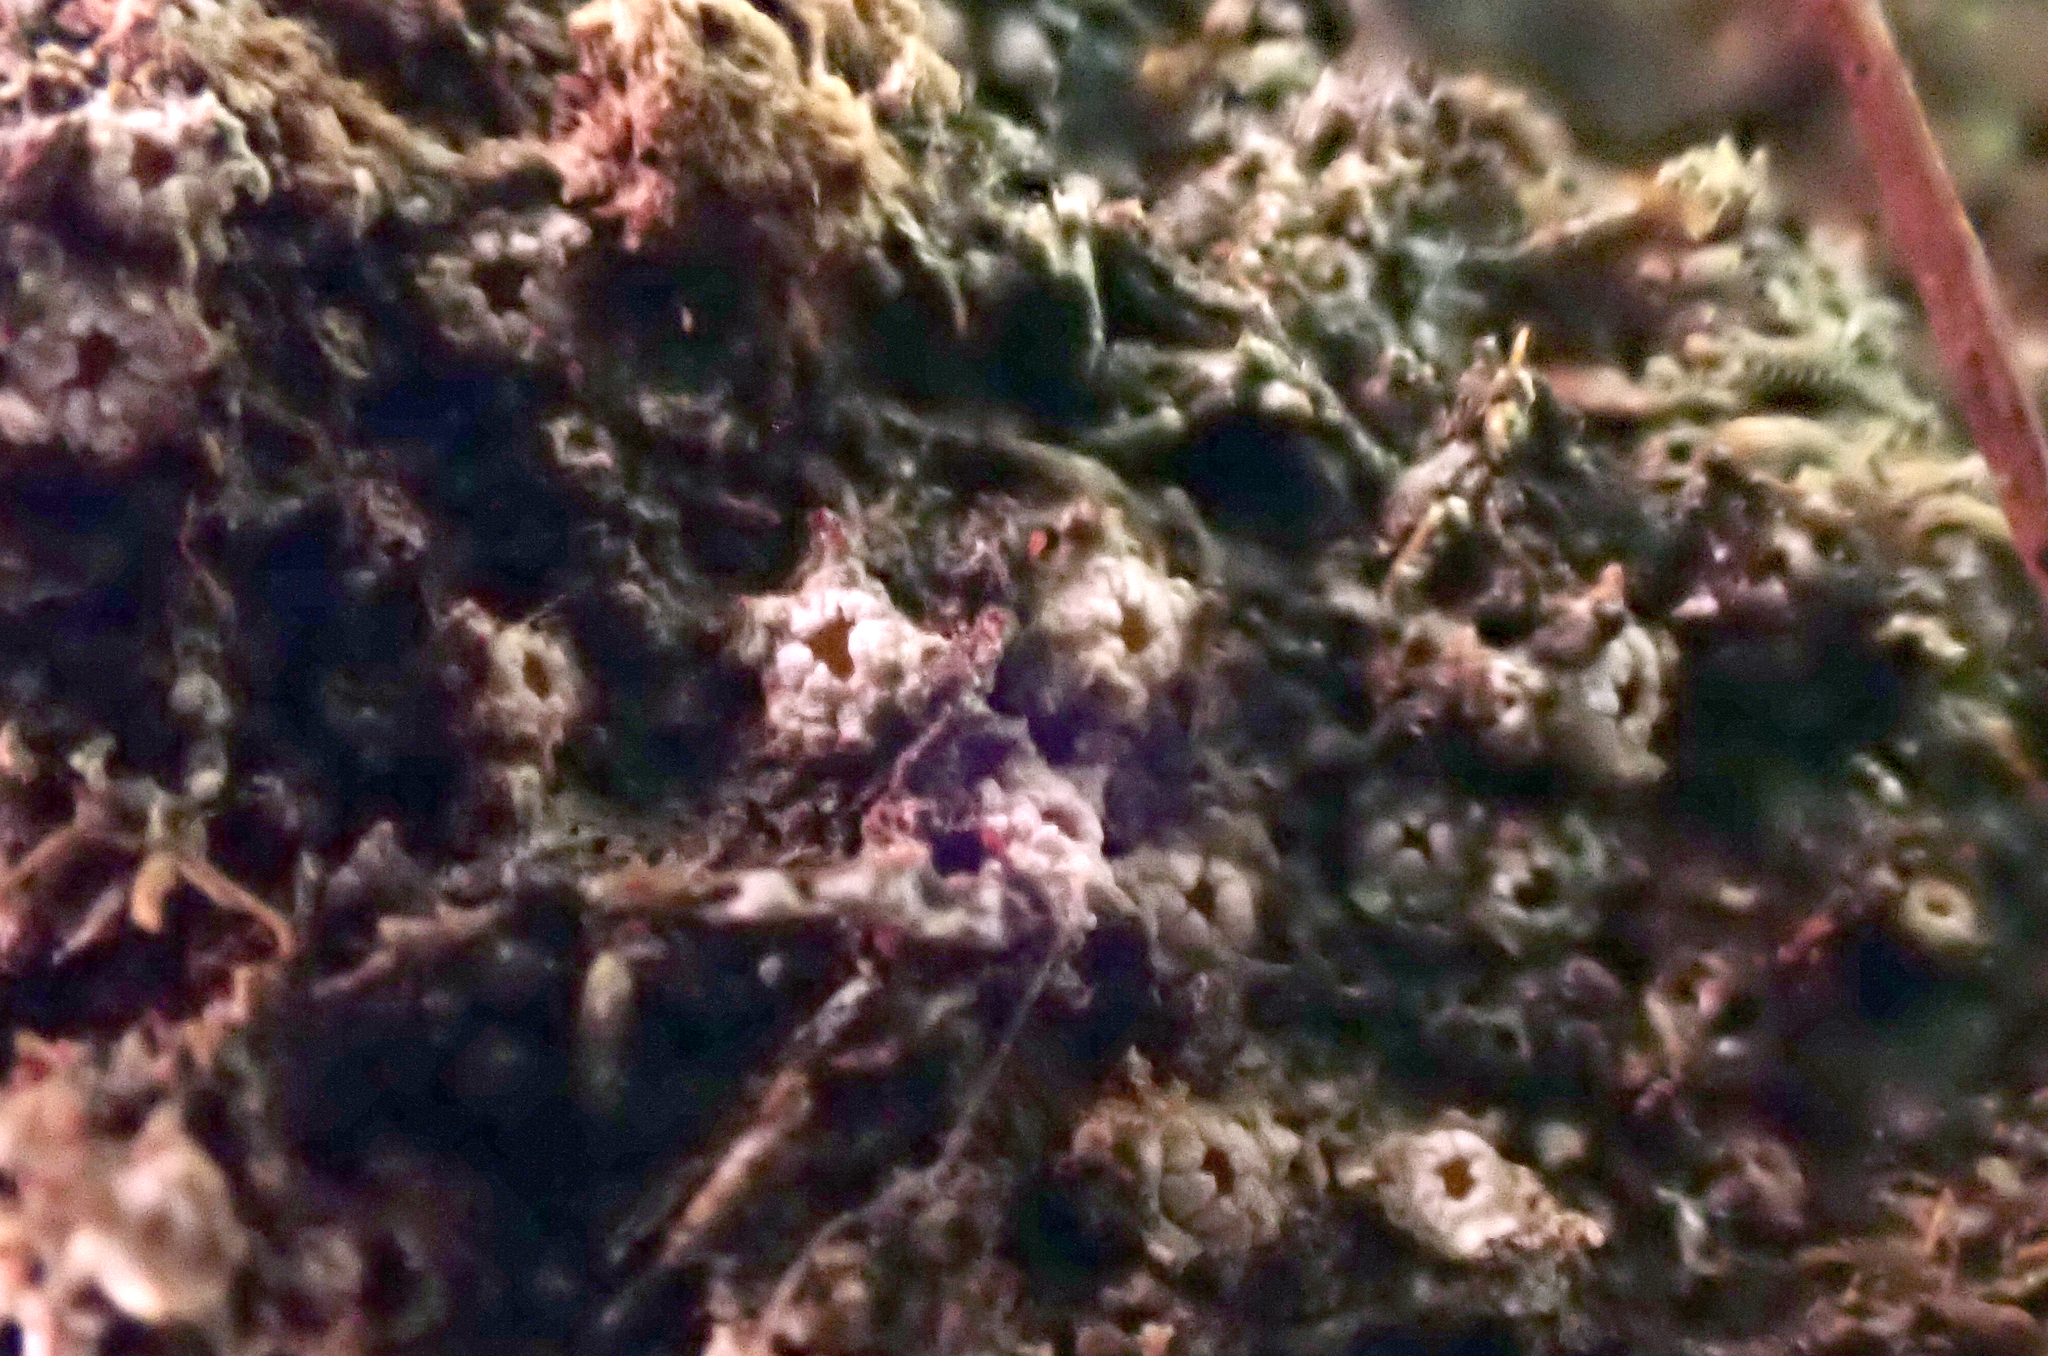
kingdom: Fungi
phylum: Ascomycota
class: Lecanoromycetes
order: Ostropales
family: Graphidaceae
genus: Topeliopsis
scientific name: Topeliopsis decorticans
